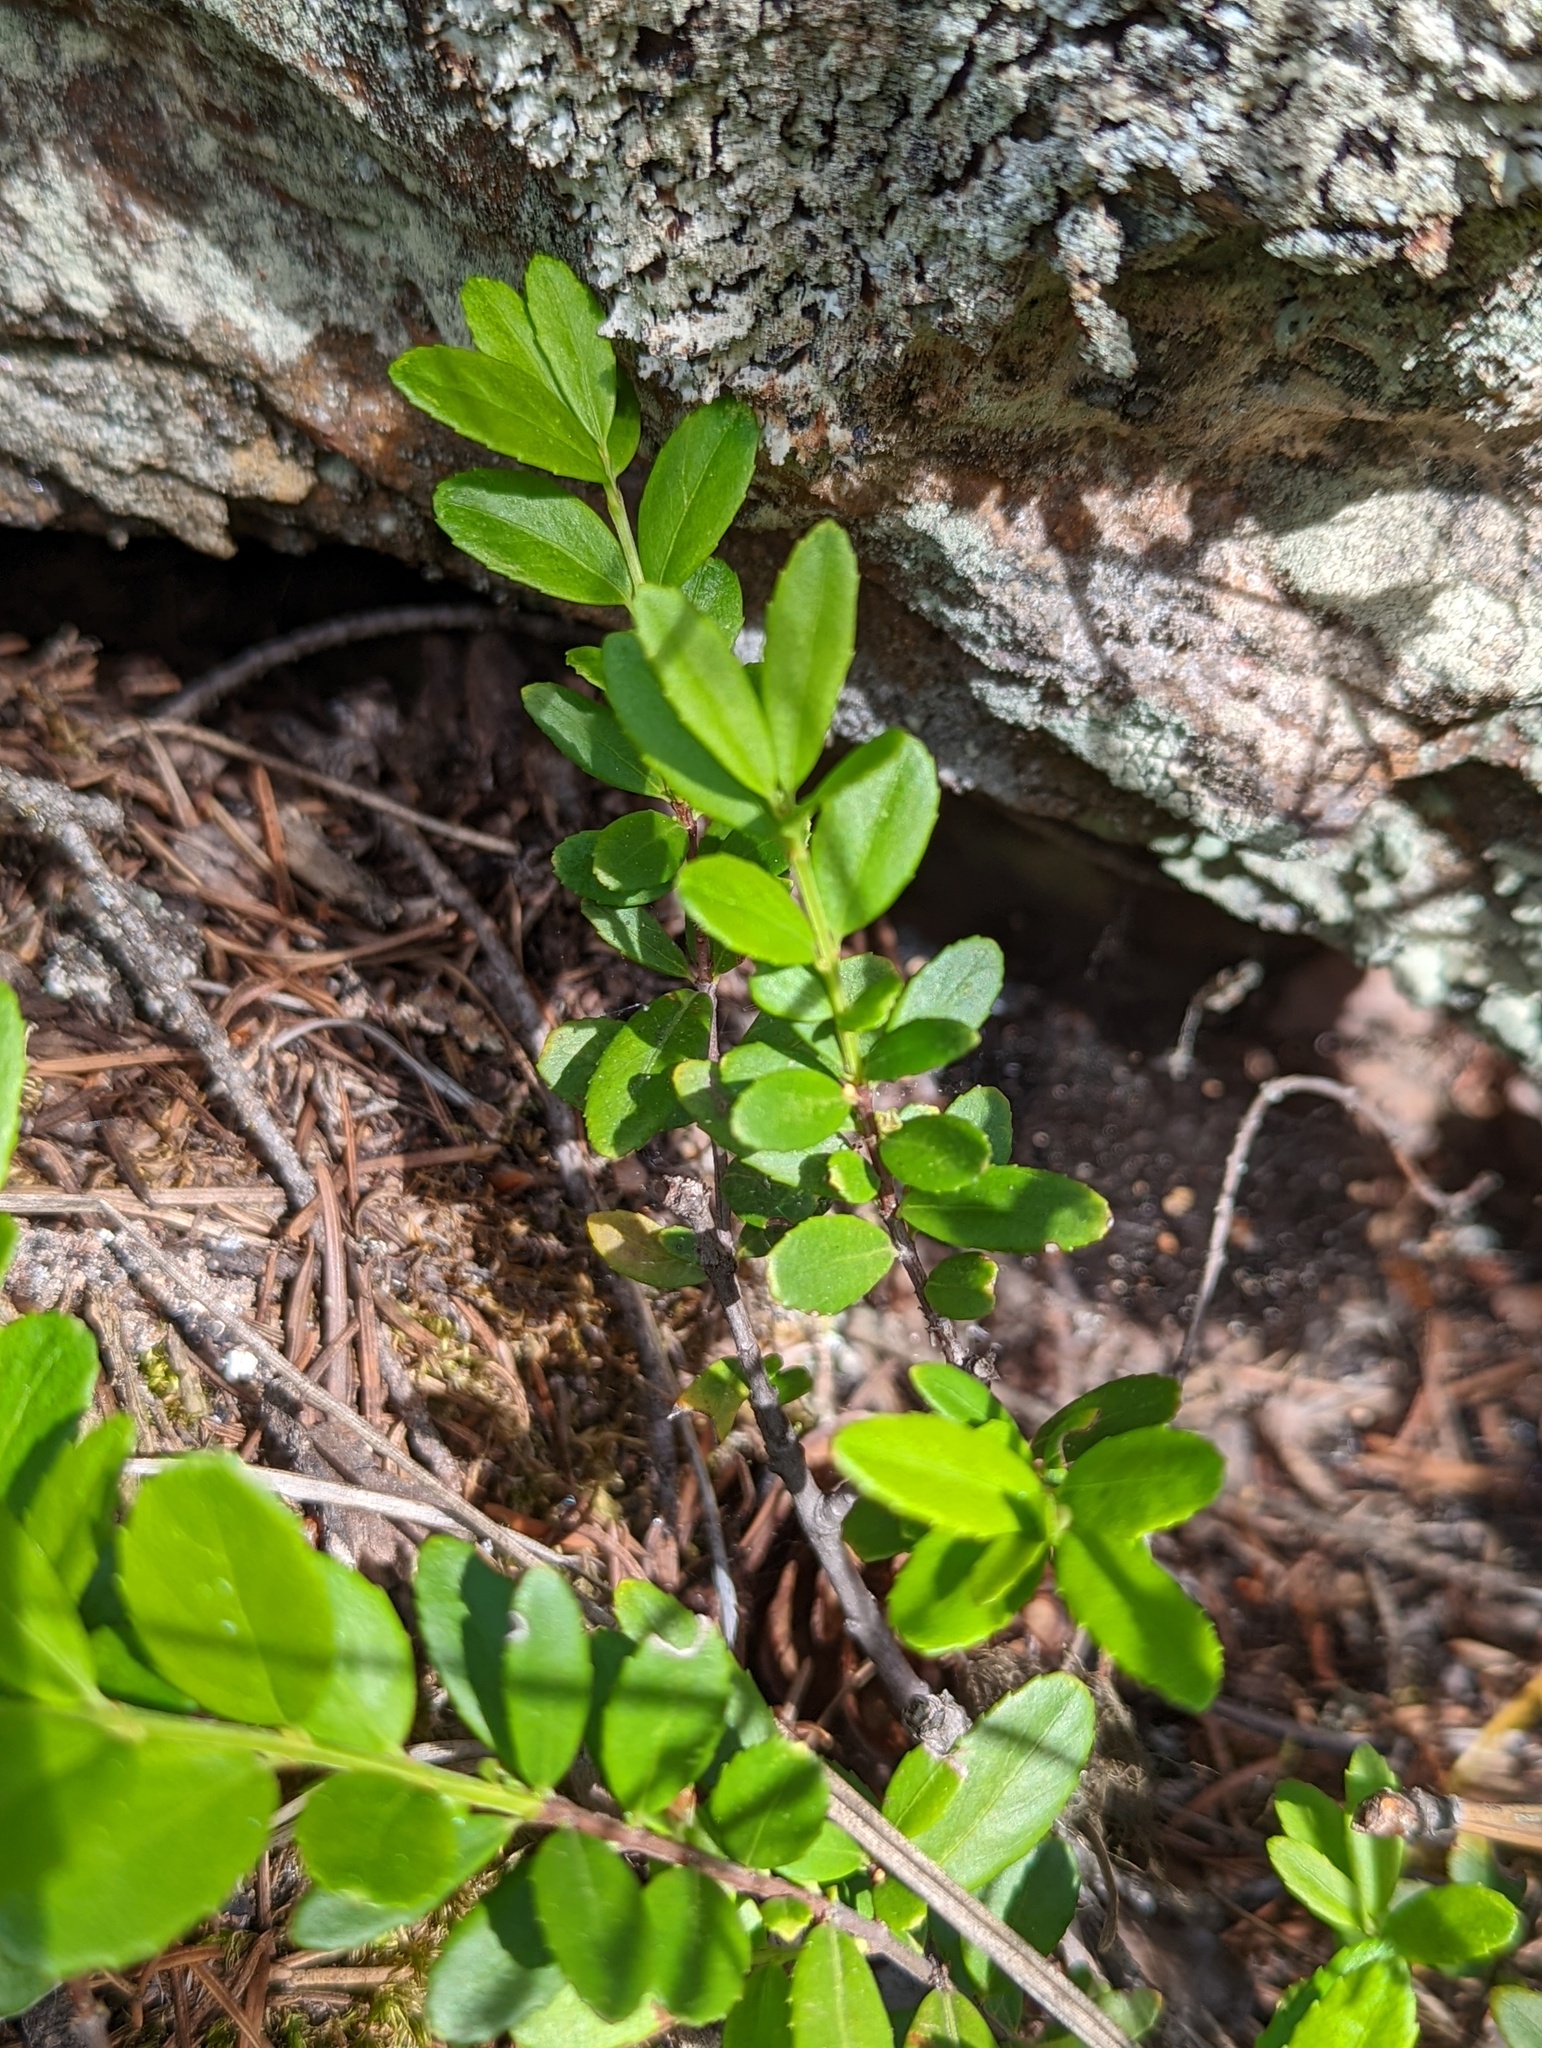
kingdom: Plantae
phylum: Tracheophyta
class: Magnoliopsida
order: Celastrales
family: Celastraceae
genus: Paxistima
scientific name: Paxistima myrsinites
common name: Mountain-lover
